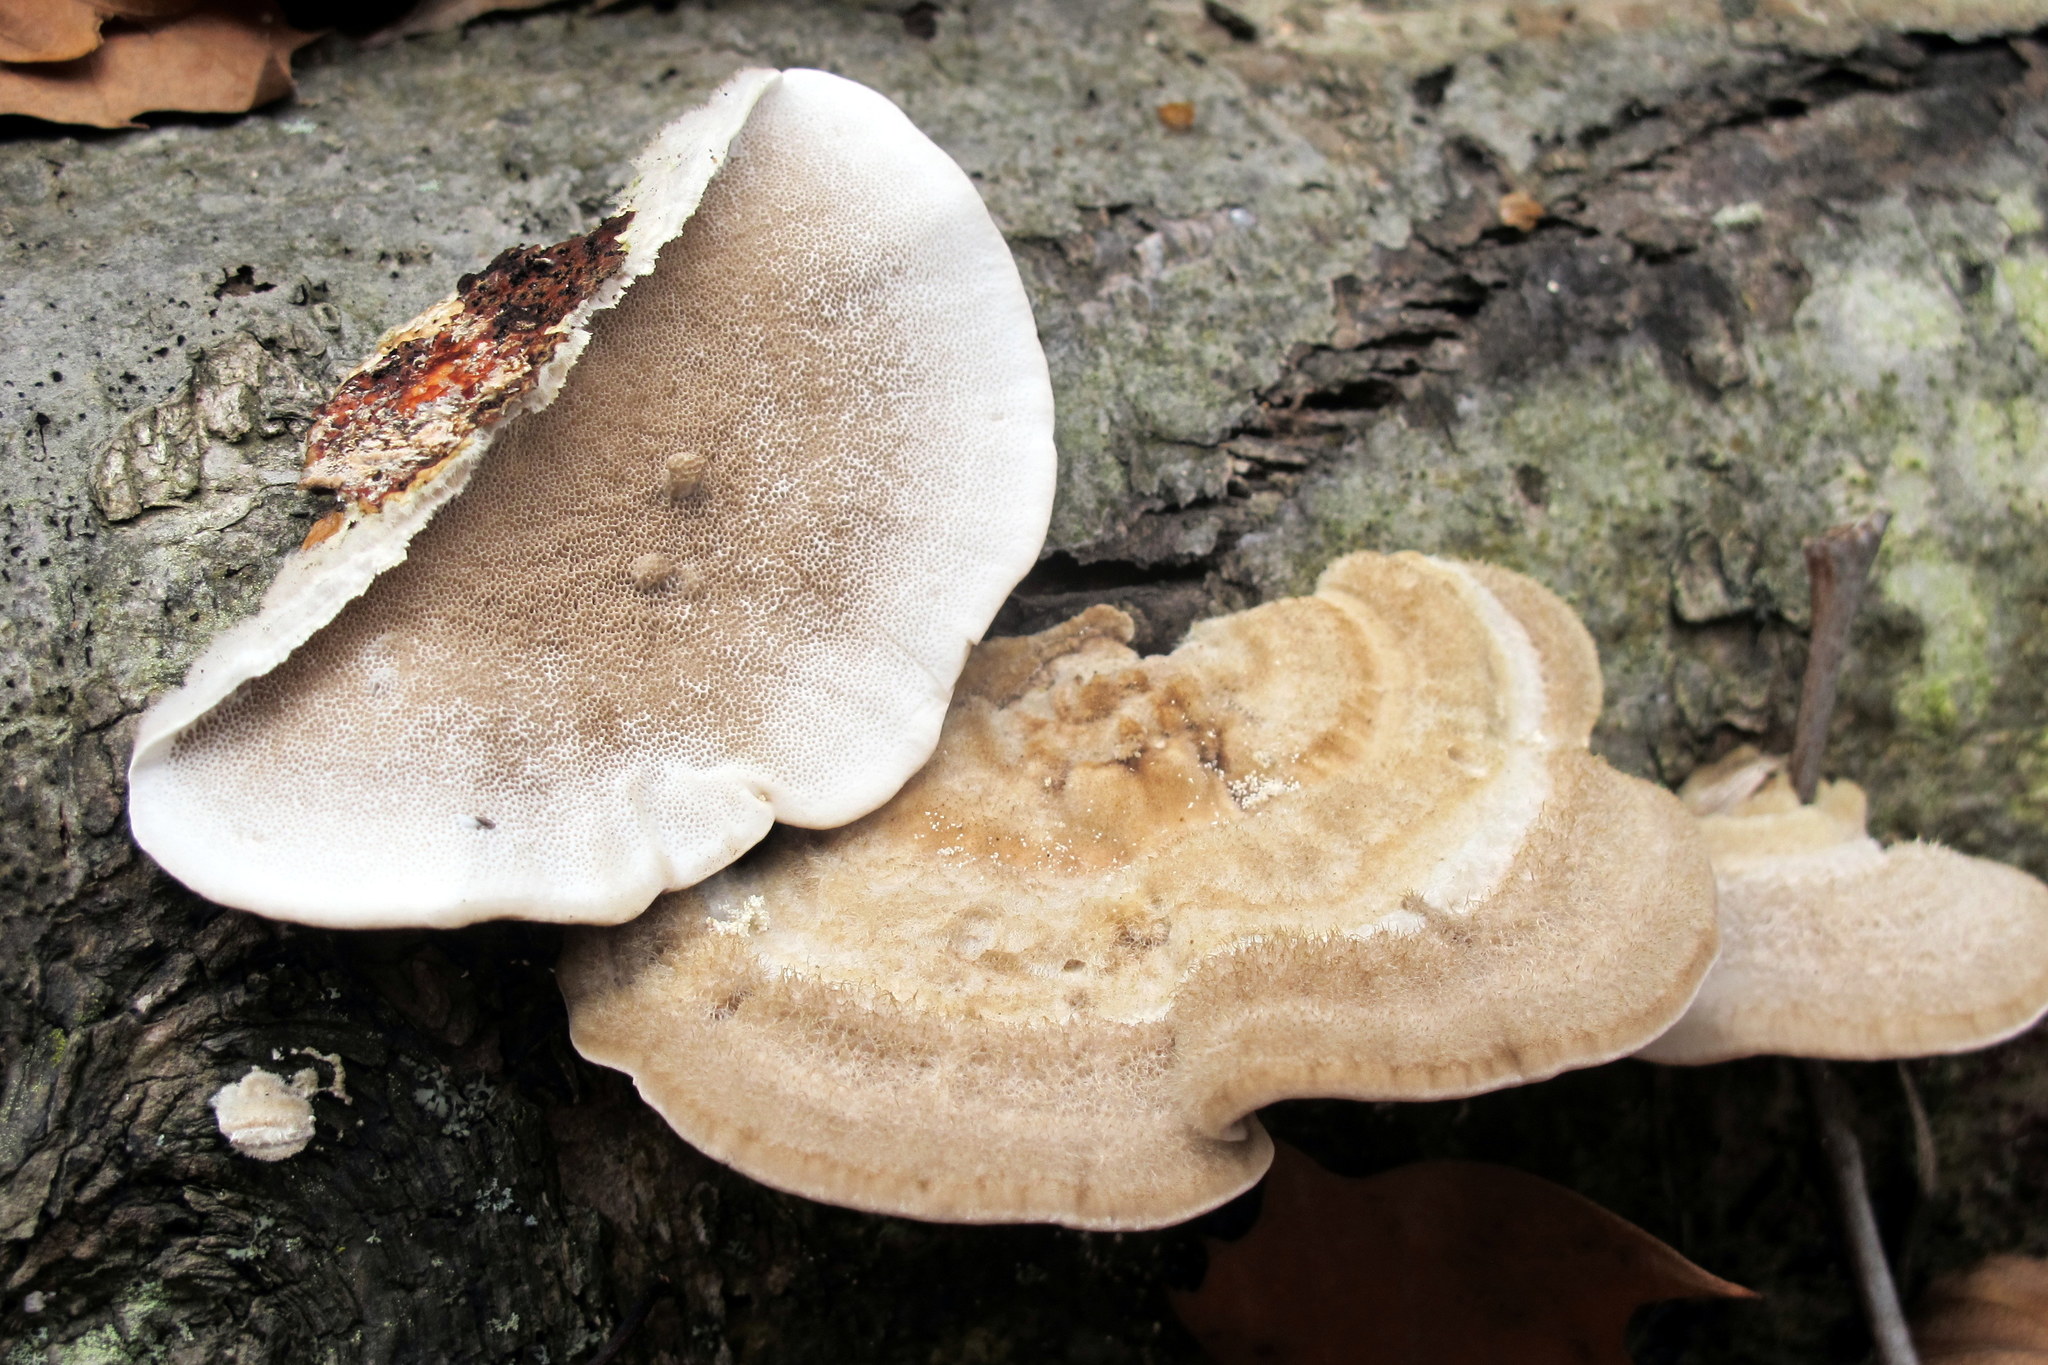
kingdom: Fungi
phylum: Basidiomycota
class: Agaricomycetes
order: Polyporales
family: Polyporaceae
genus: Trametes
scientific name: Trametes hirsuta
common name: Hairy bracket
